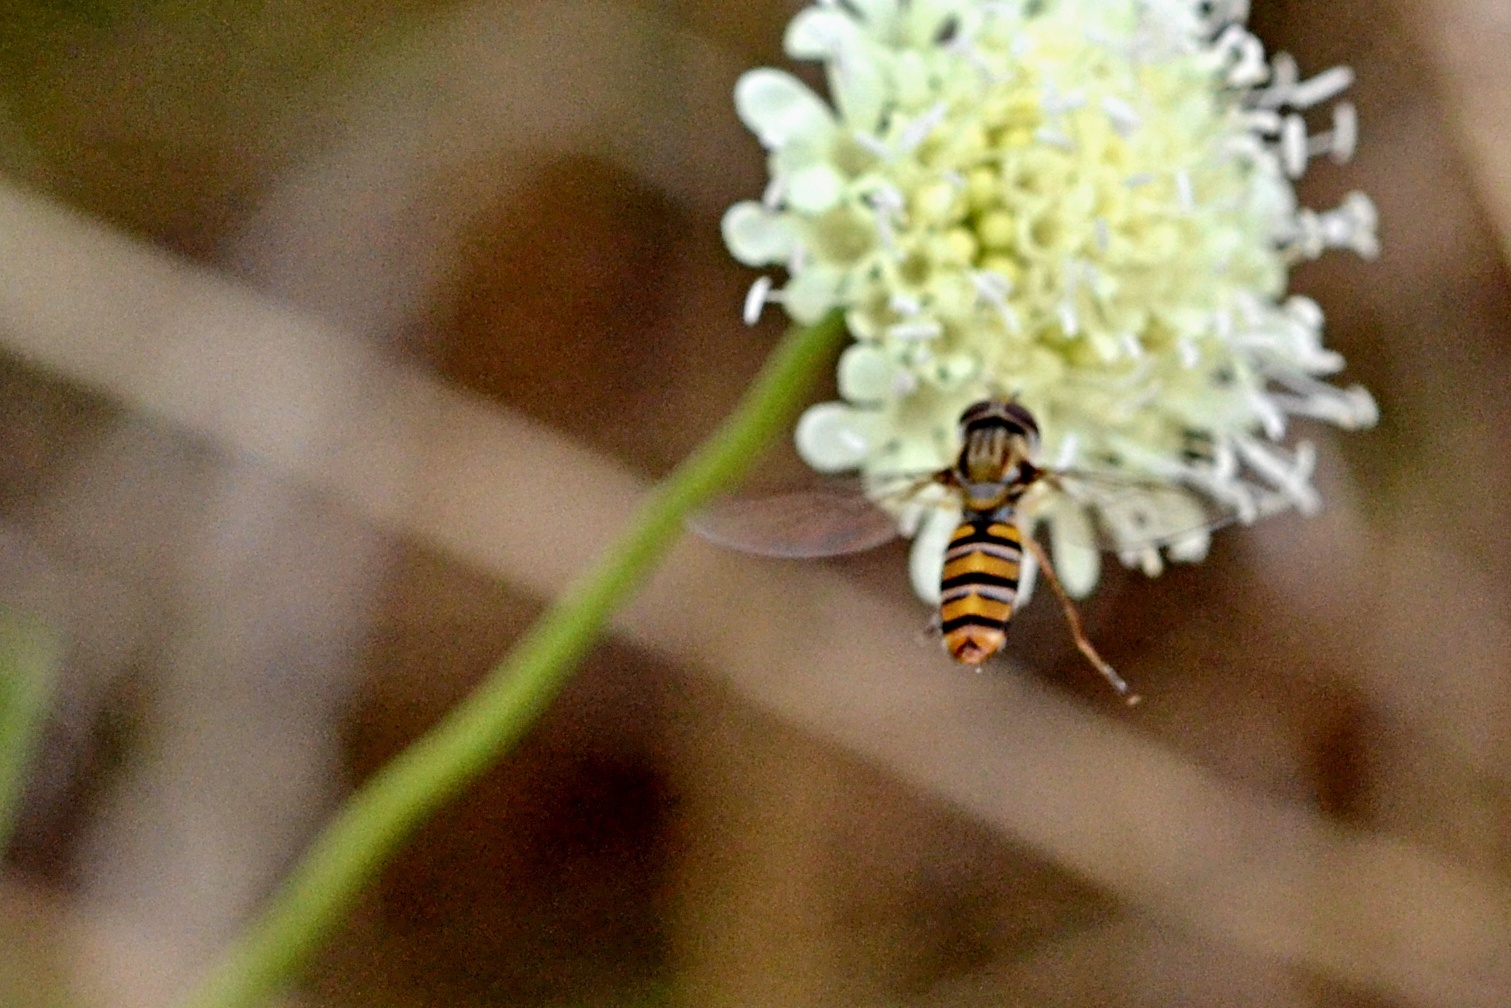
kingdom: Animalia
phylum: Arthropoda
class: Insecta
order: Diptera
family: Syrphidae
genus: Episyrphus
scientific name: Episyrphus balteatus
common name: Marmalade hoverfly
